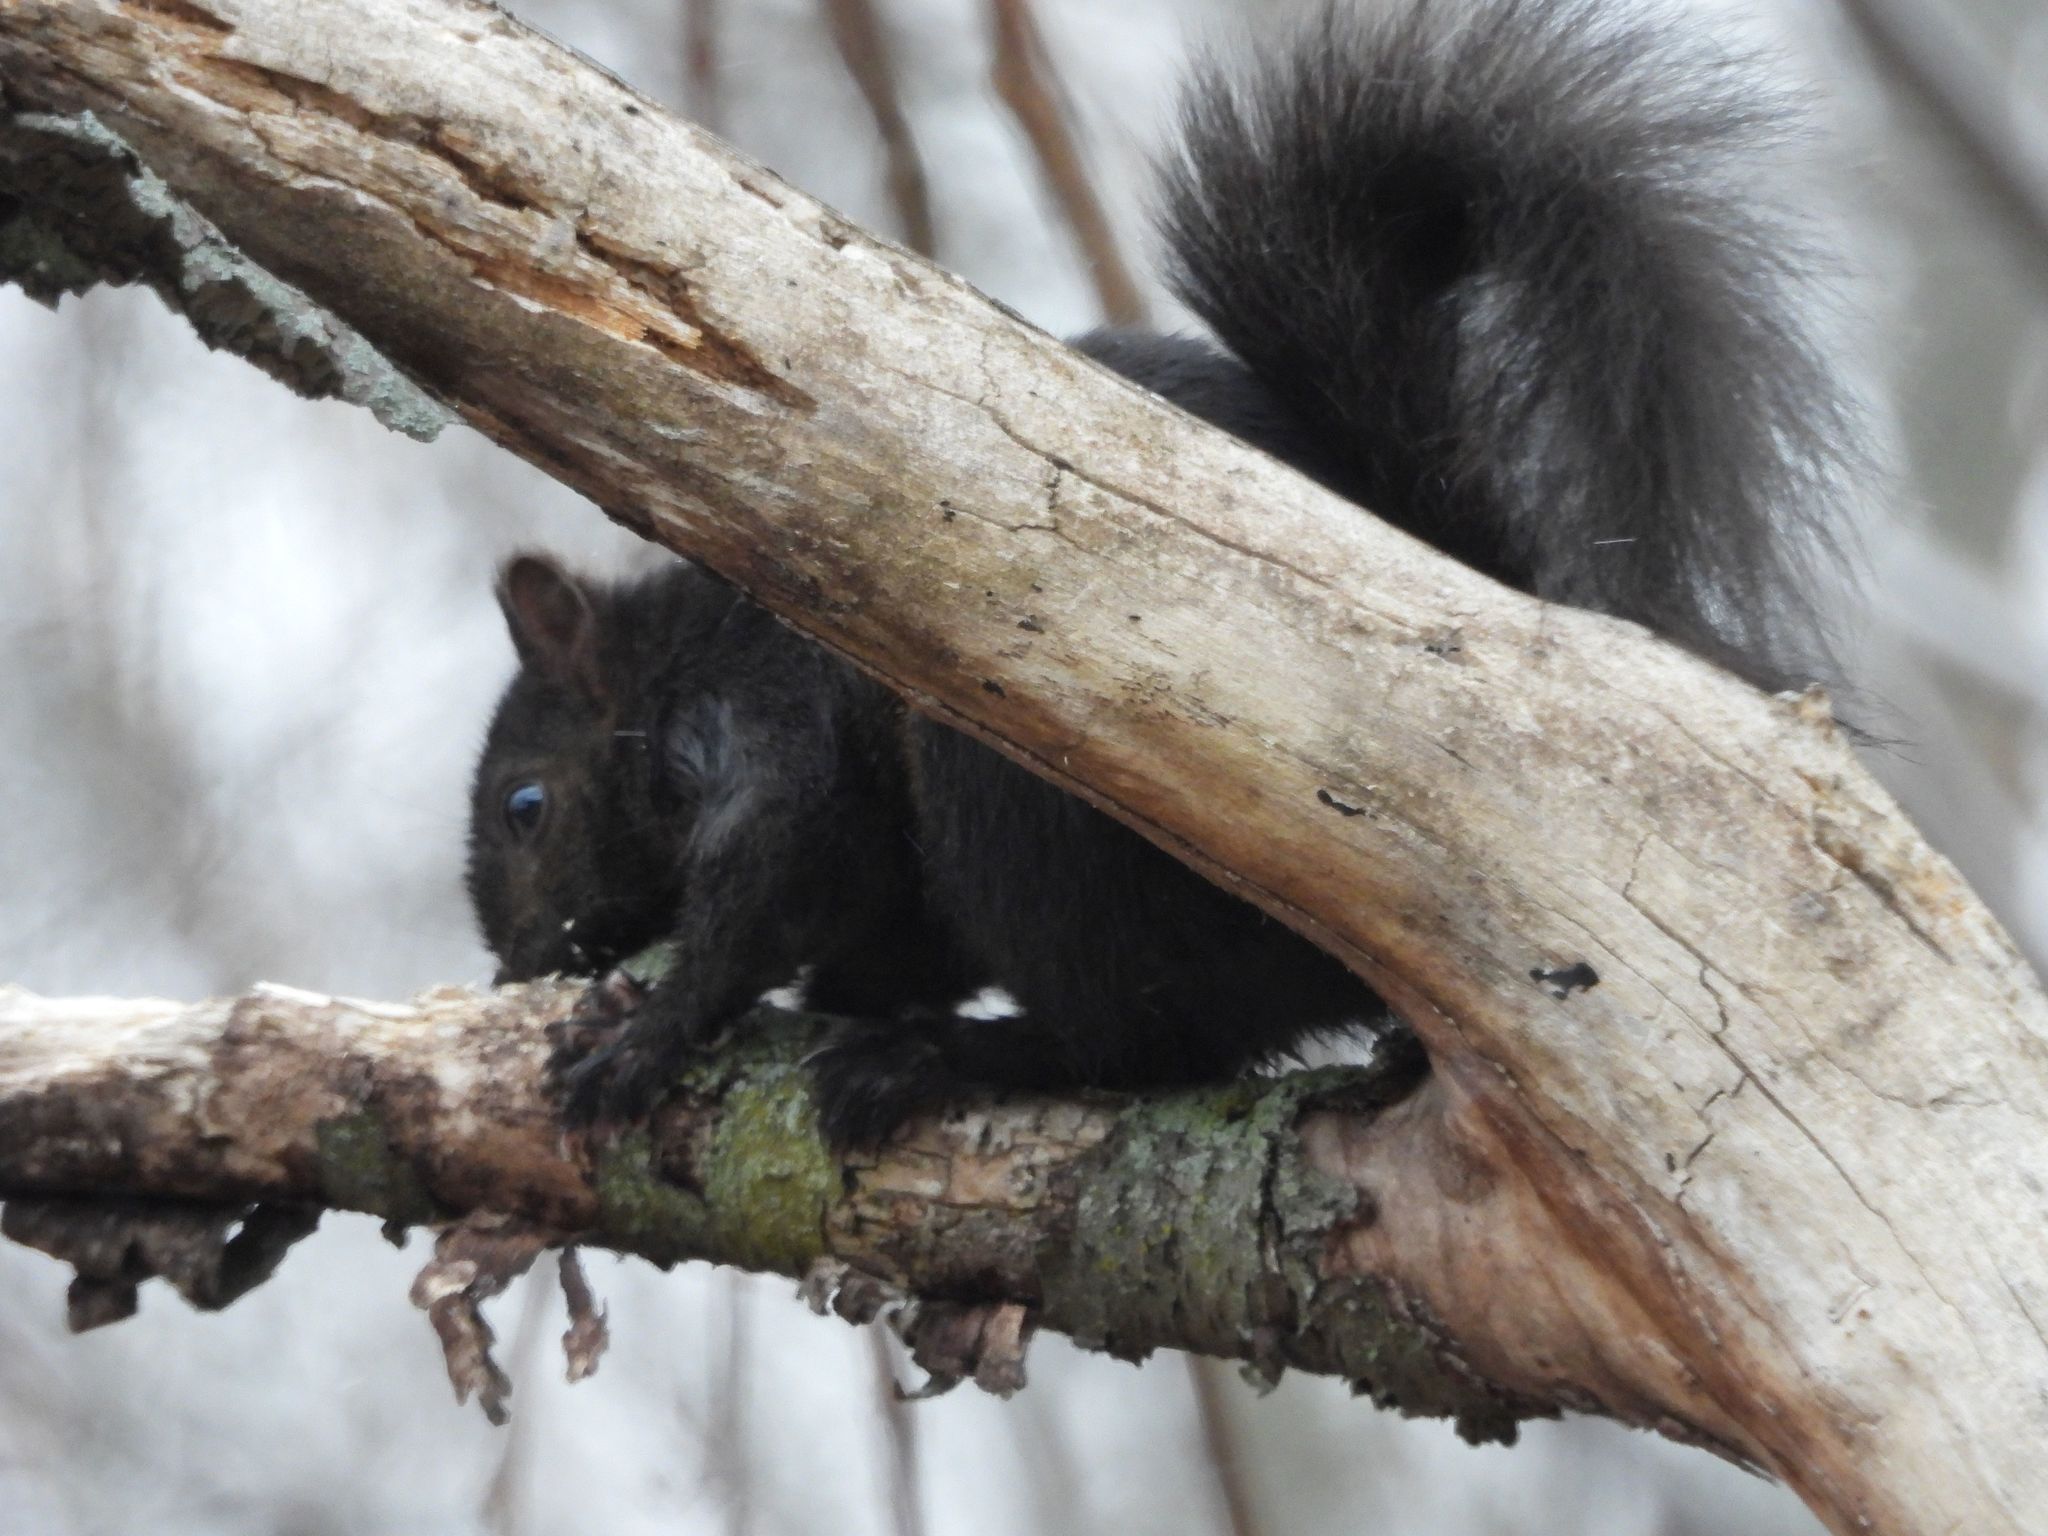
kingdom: Animalia
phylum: Chordata
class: Mammalia
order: Rodentia
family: Sciuridae
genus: Sciurus
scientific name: Sciurus carolinensis
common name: Eastern gray squirrel
